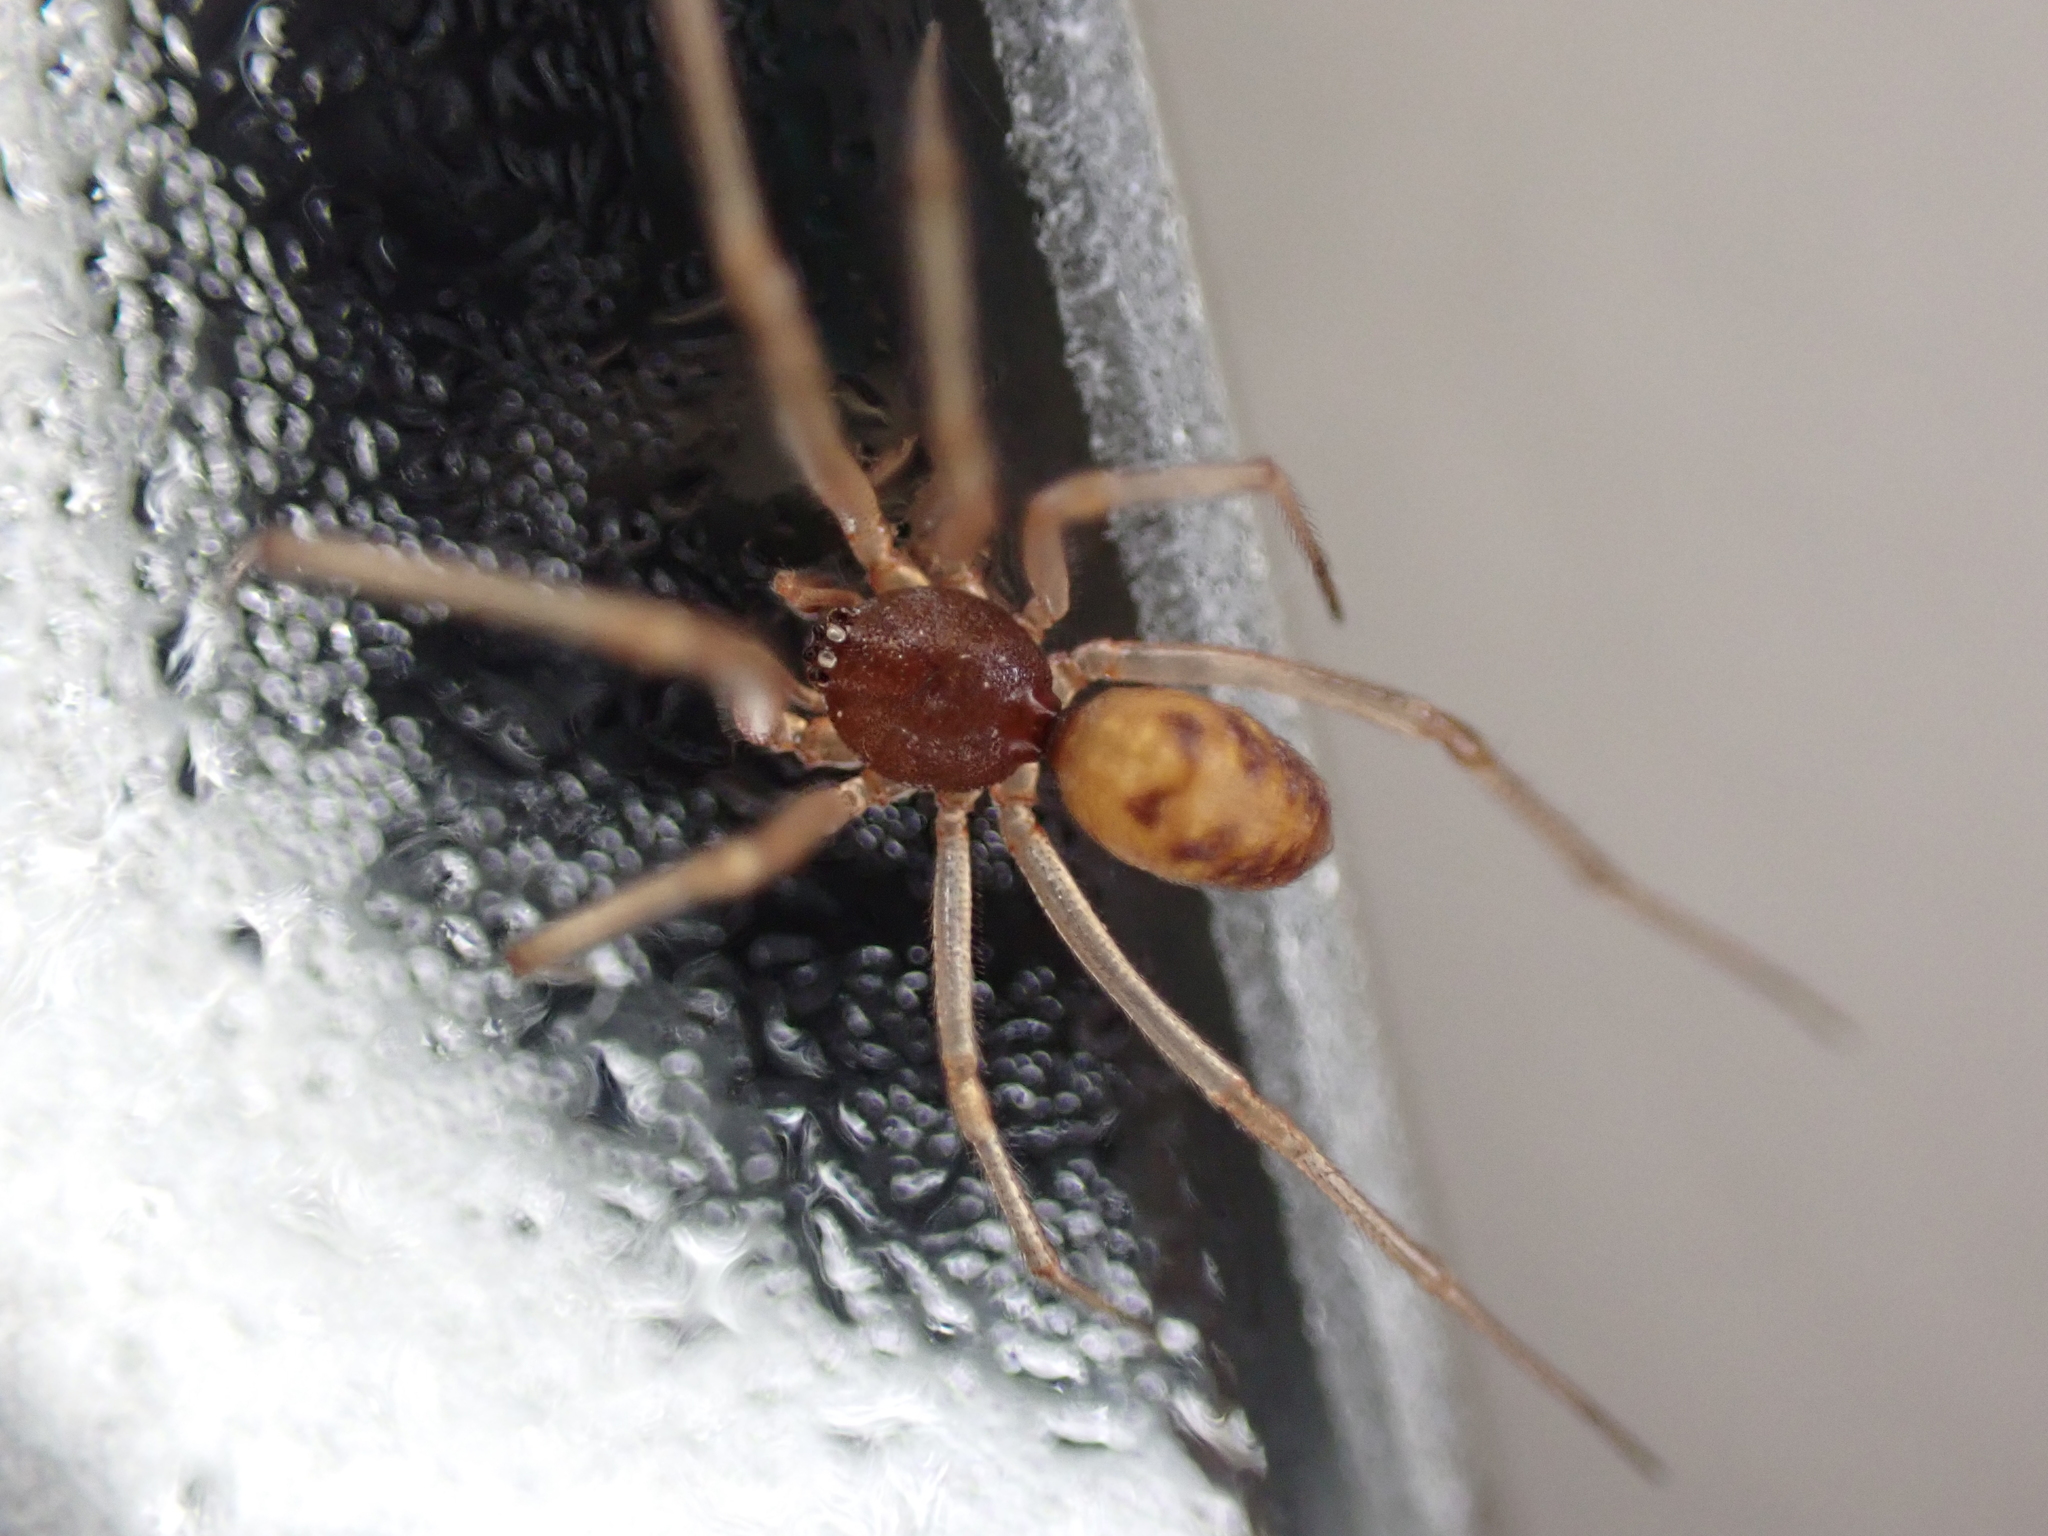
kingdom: Animalia
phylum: Arthropoda
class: Arachnida
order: Araneae
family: Theridiidae
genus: Steatoda
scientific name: Steatoda triangulosa
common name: Triangulate bud spider
